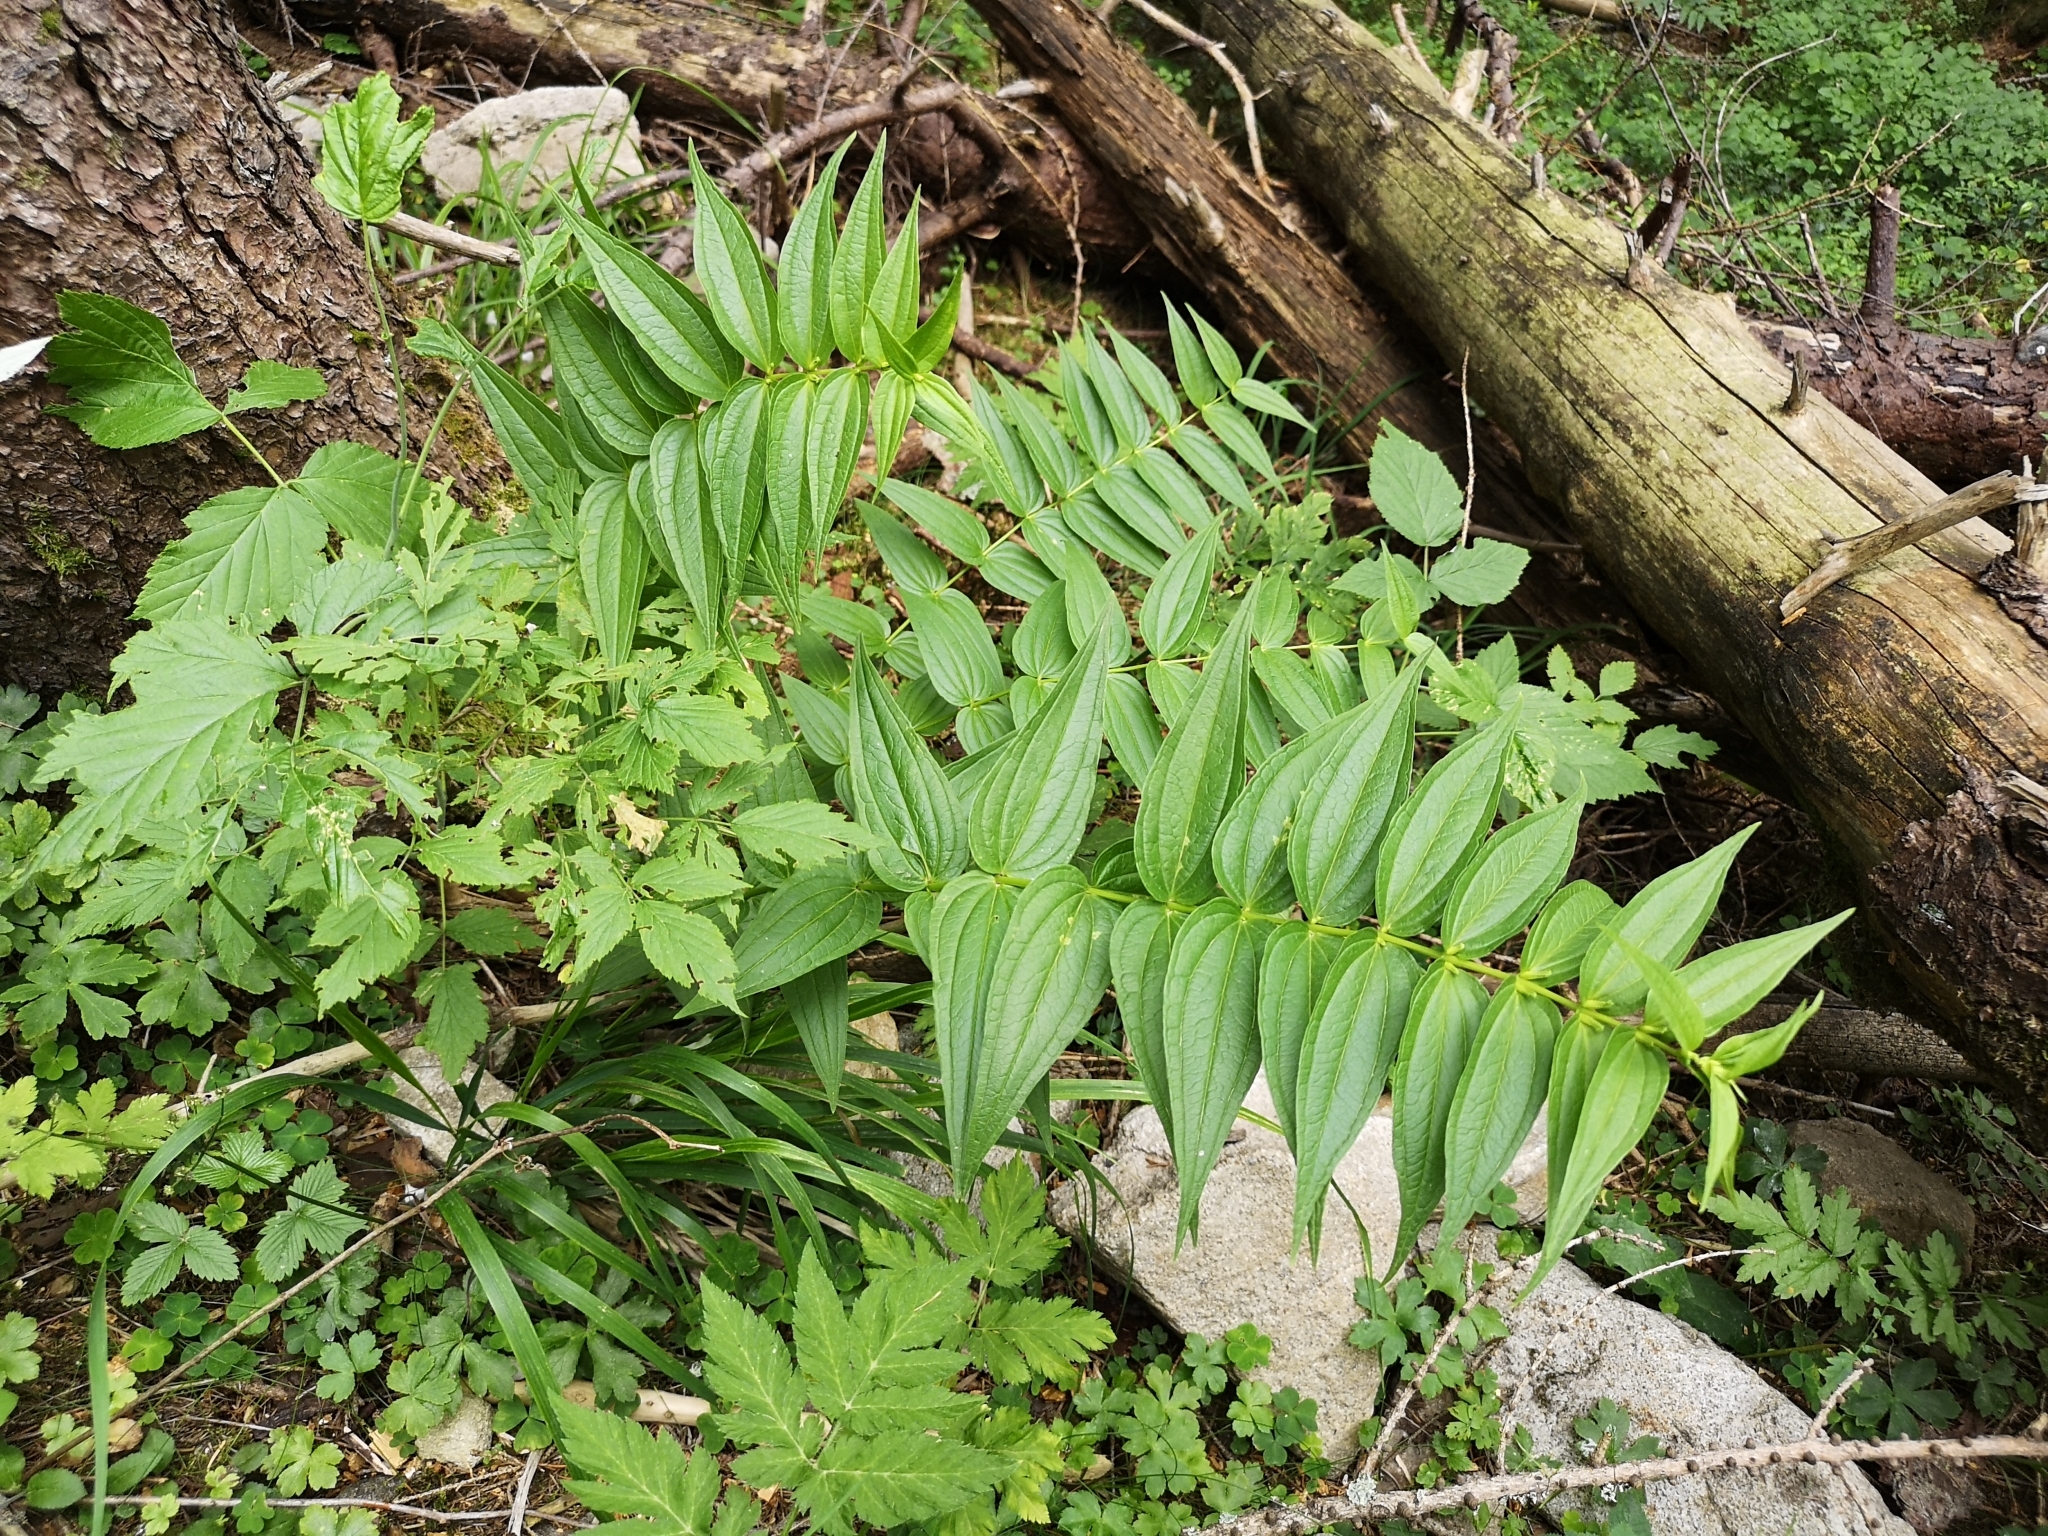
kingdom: Plantae
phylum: Tracheophyta
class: Magnoliopsida
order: Gentianales
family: Gentianaceae
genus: Gentiana
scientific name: Gentiana asclepiadea
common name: Willow gentian
